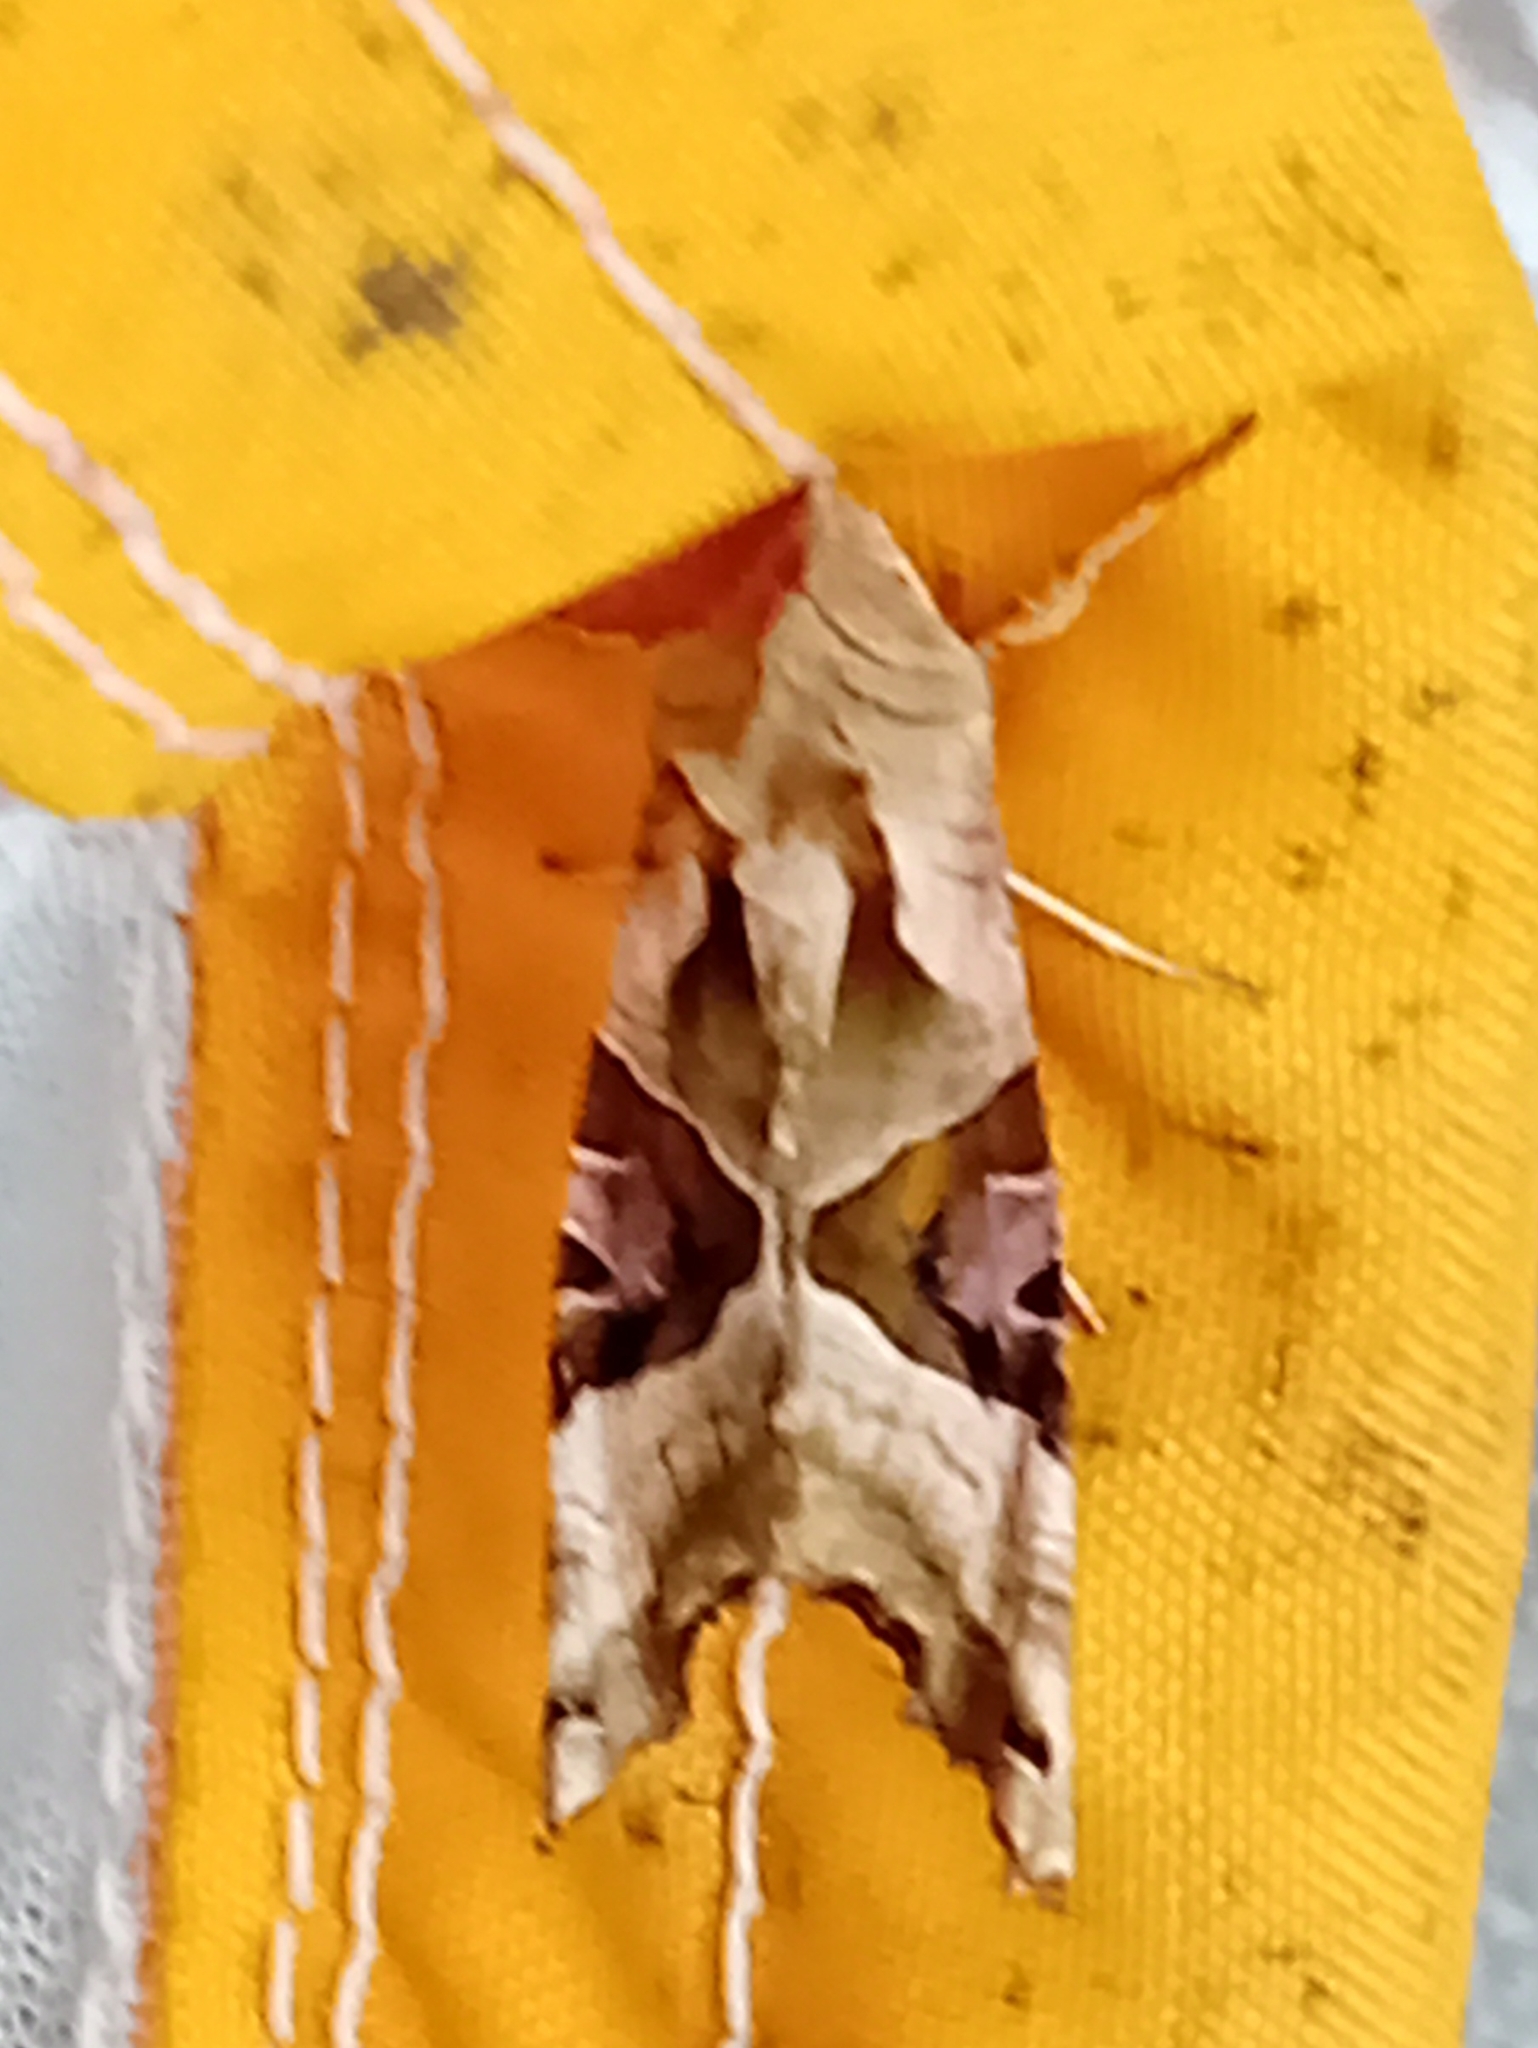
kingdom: Animalia
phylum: Arthropoda
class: Insecta
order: Lepidoptera
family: Noctuidae
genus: Phlogophora
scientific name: Phlogophora meticulosa
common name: Angle shades
